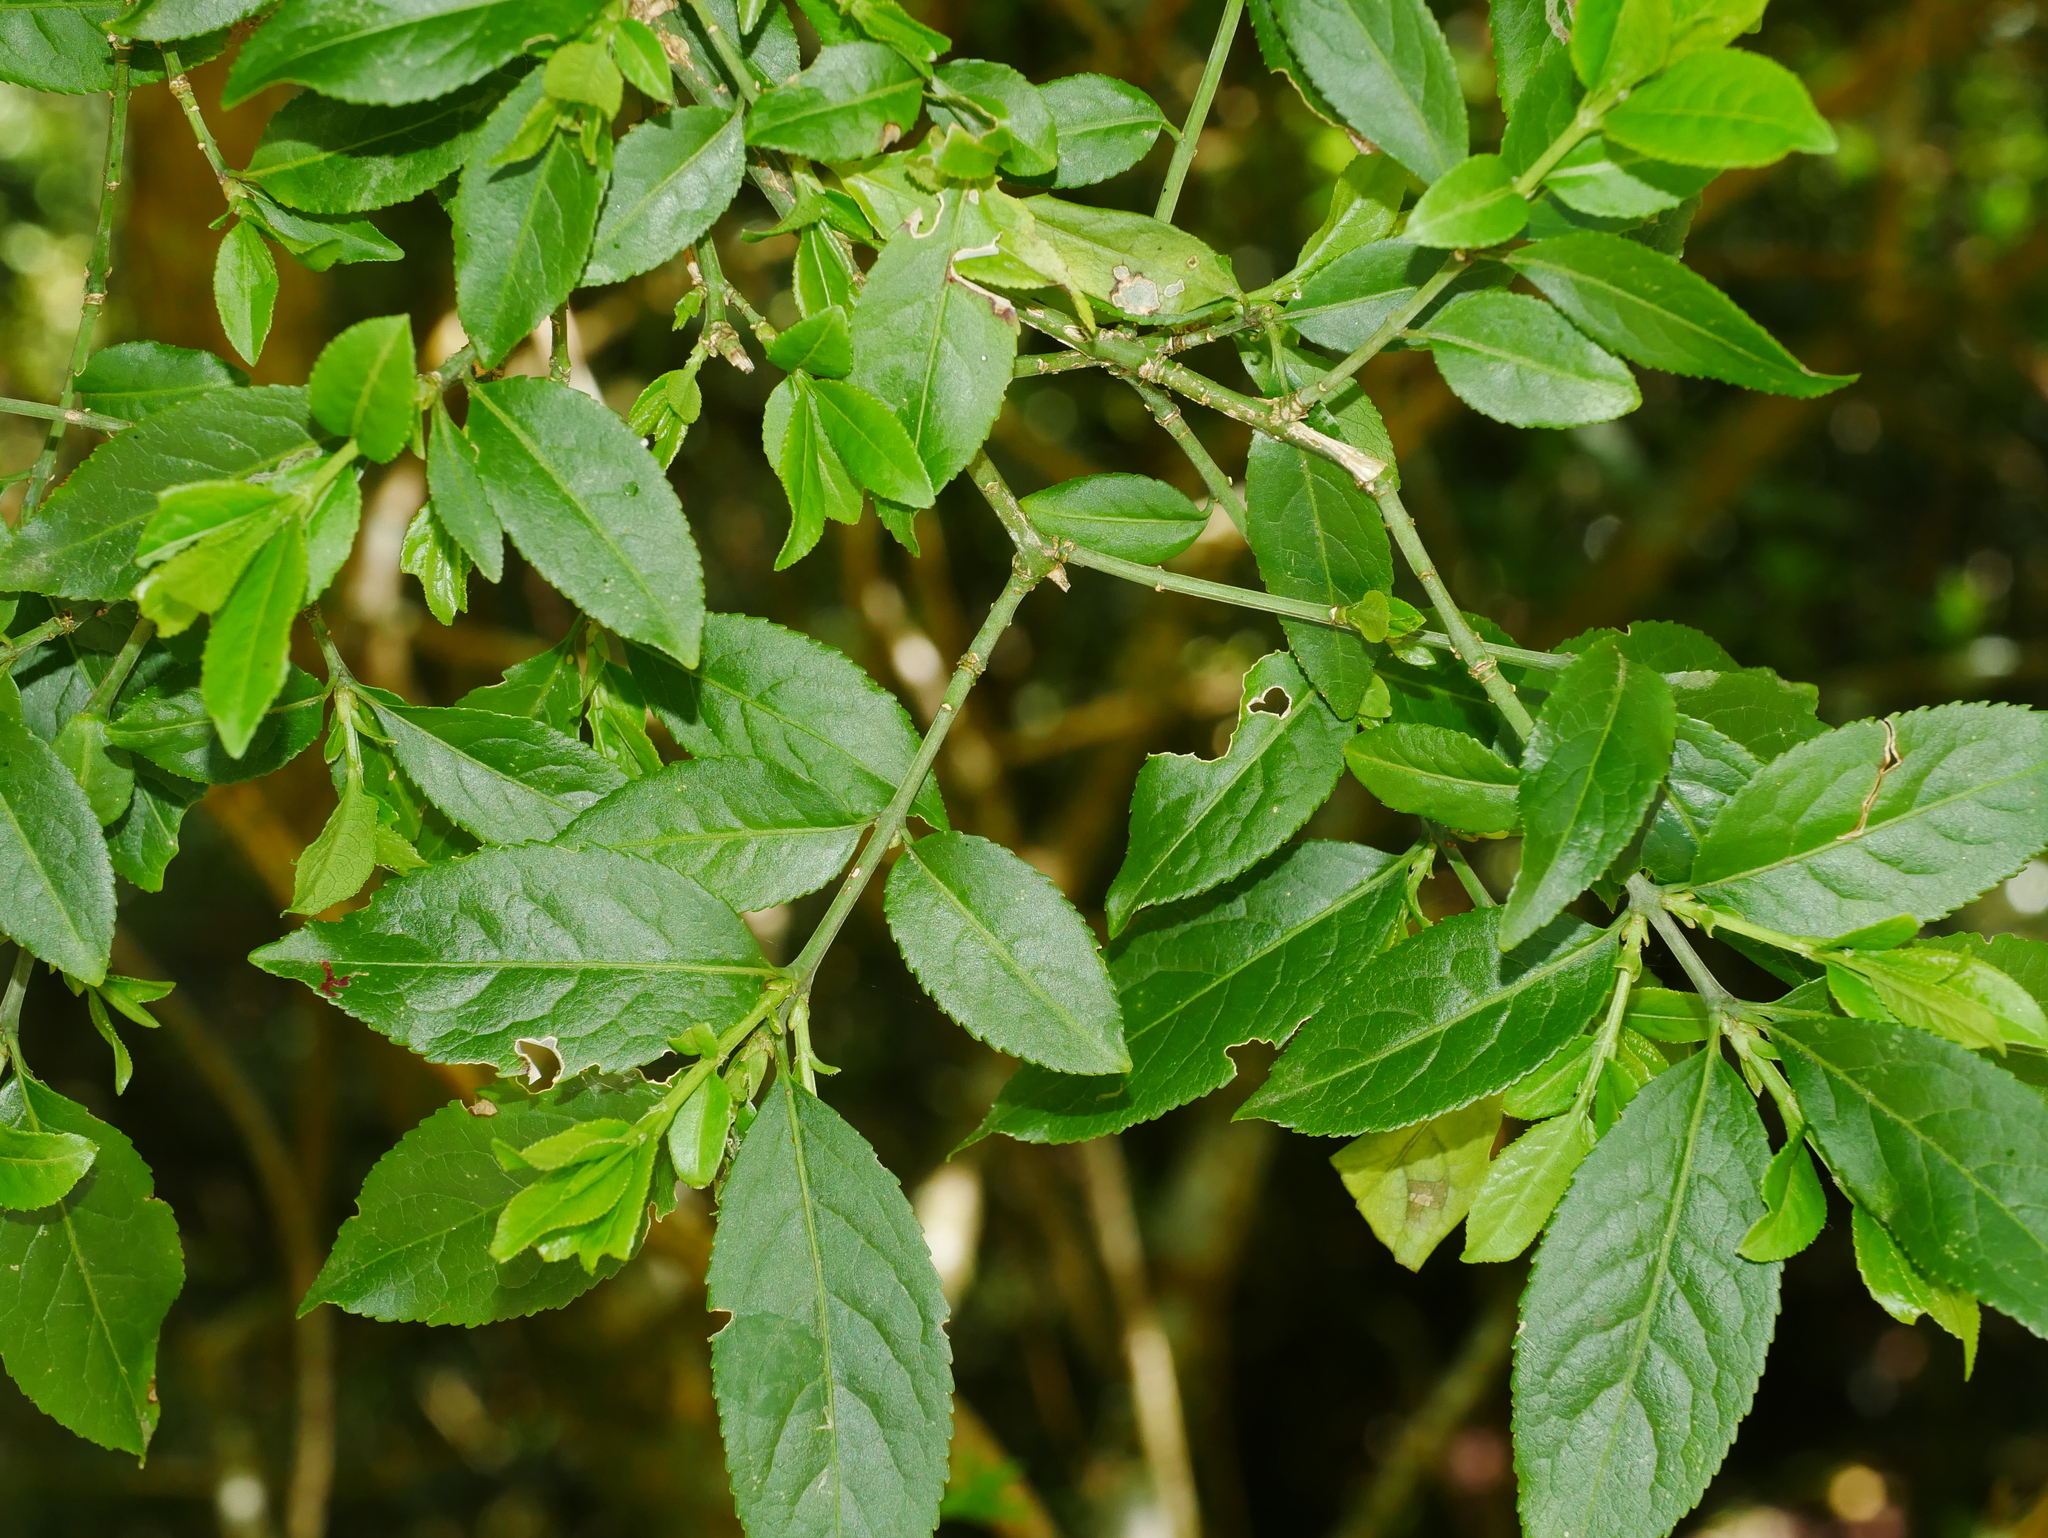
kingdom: Plantae
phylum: Tracheophyta
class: Magnoliopsida
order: Celastrales
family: Celastraceae
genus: Euonymus
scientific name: Euonymus carnosus
